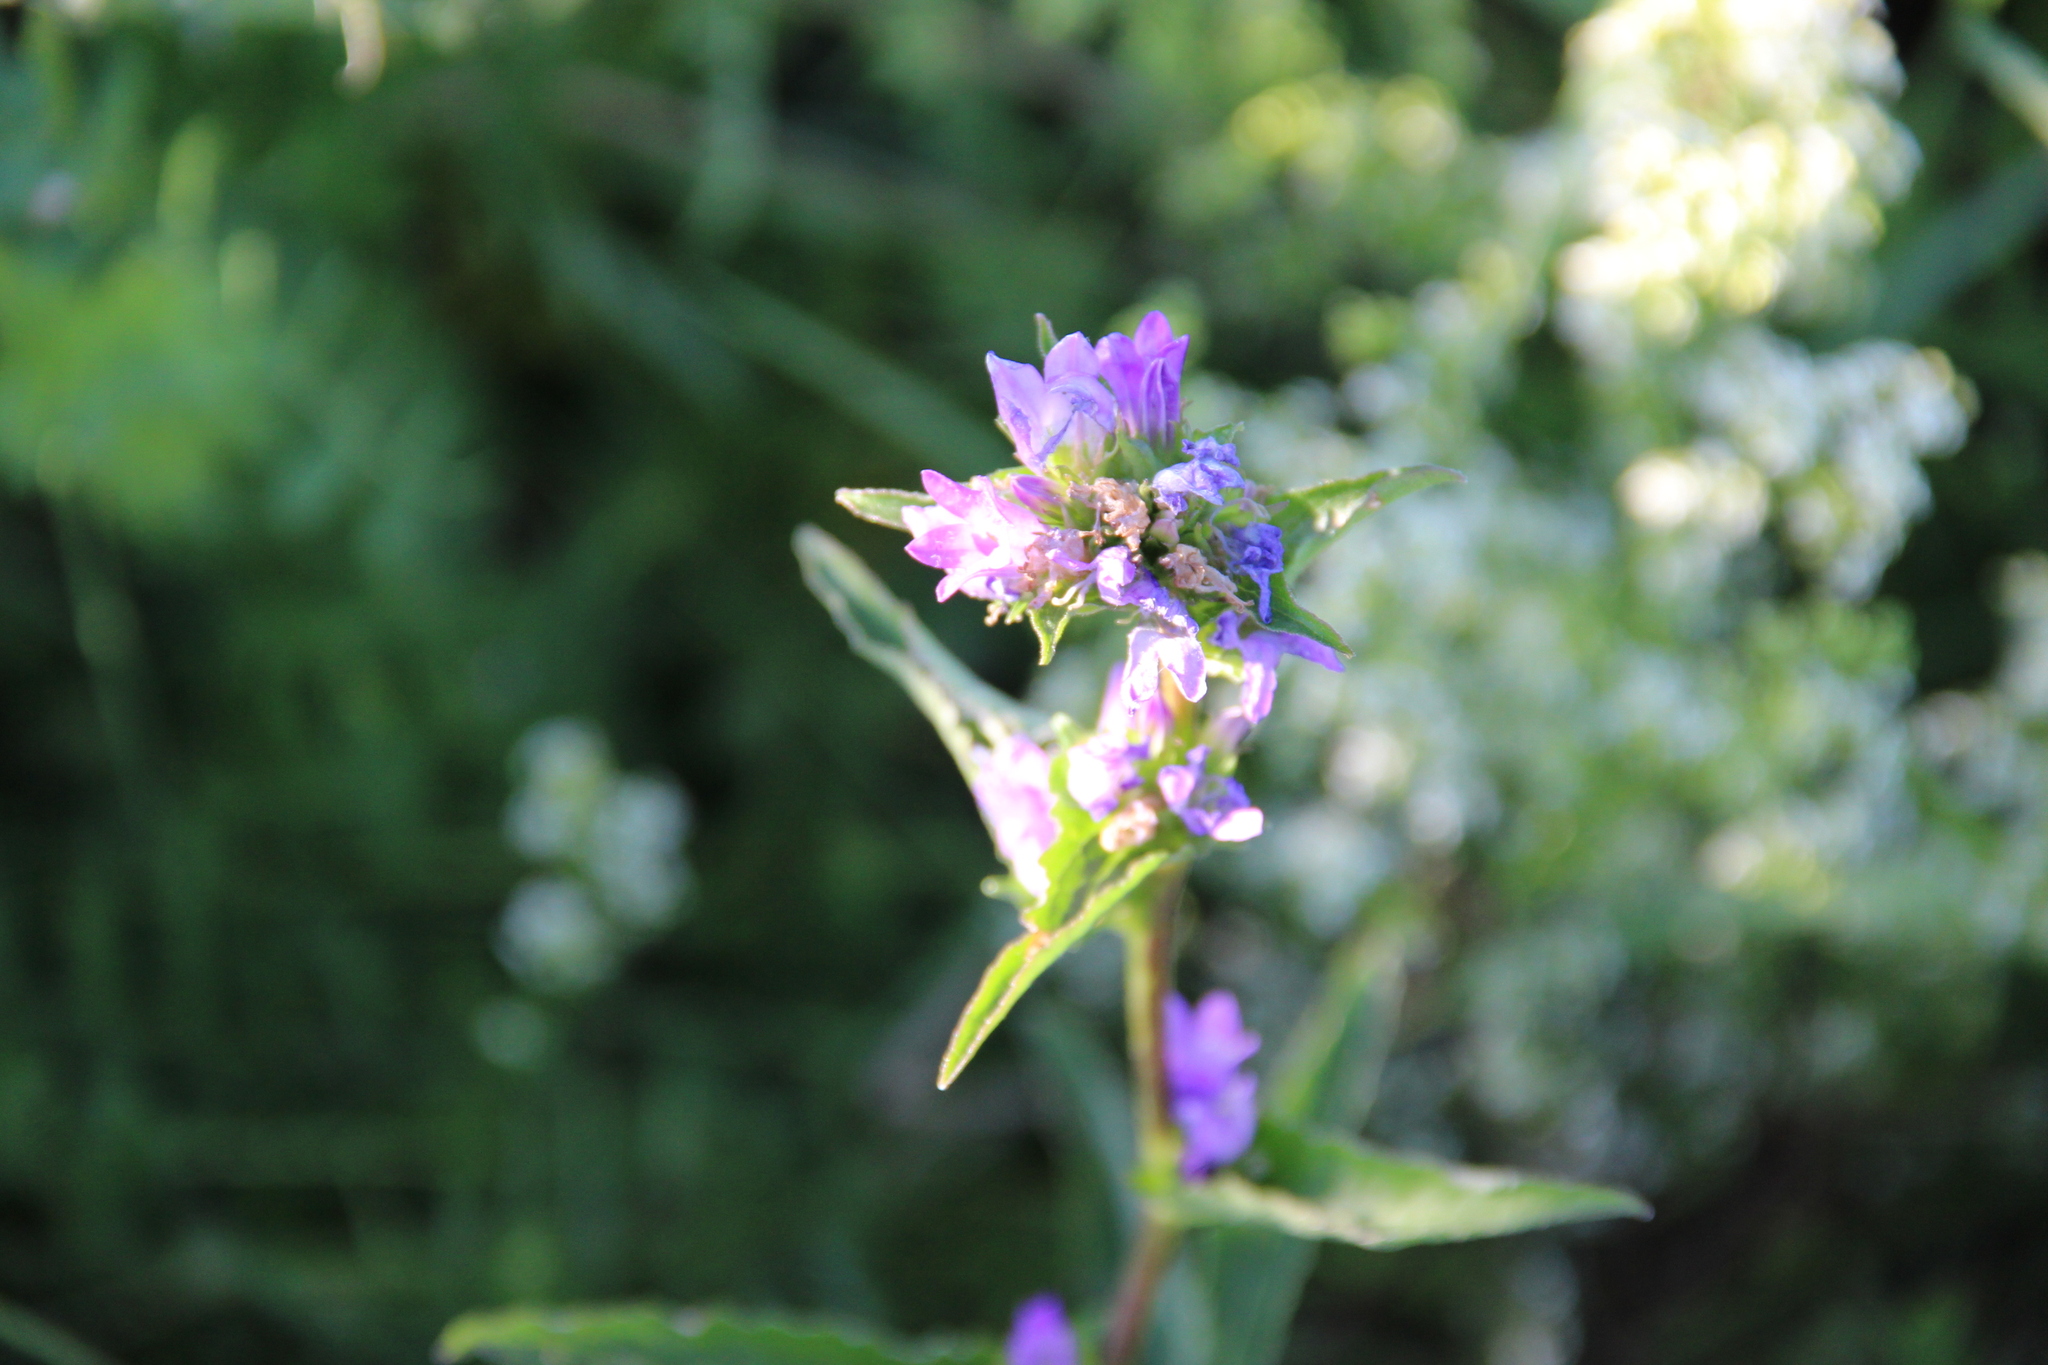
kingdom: Plantae
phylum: Tracheophyta
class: Magnoliopsida
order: Asterales
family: Campanulaceae
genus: Campanula
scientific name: Campanula glomerata
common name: Clustered bellflower
